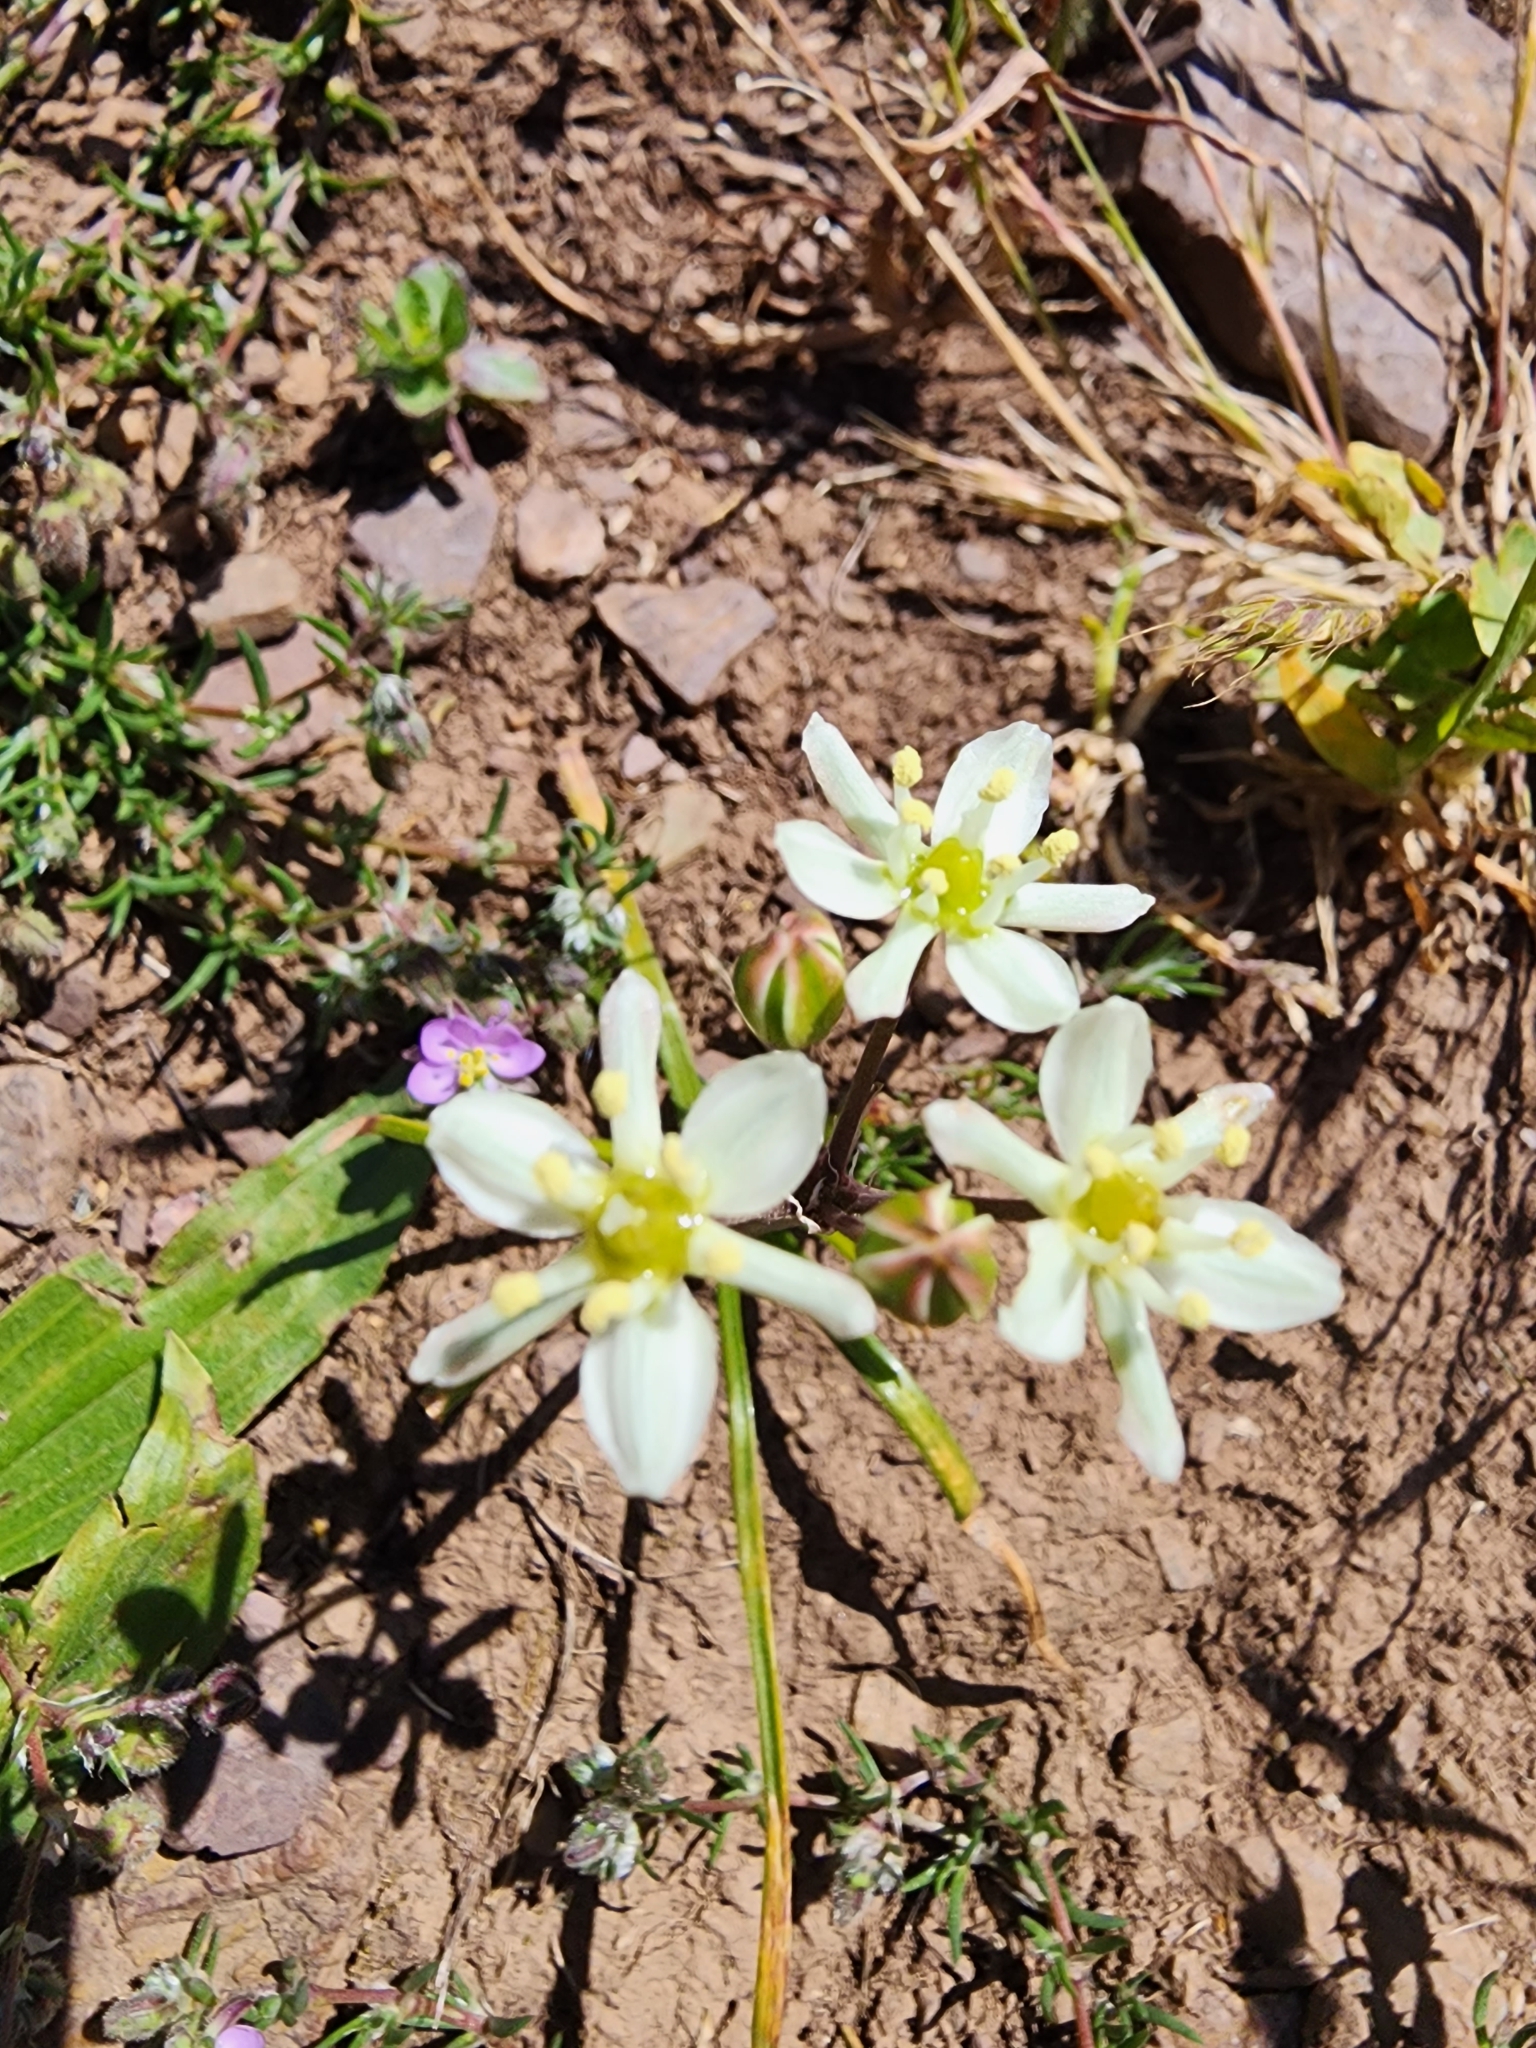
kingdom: Plantae
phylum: Tracheophyta
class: Liliopsida
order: Asparagales
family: Asparagaceae
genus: Muilla
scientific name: Muilla maritima
